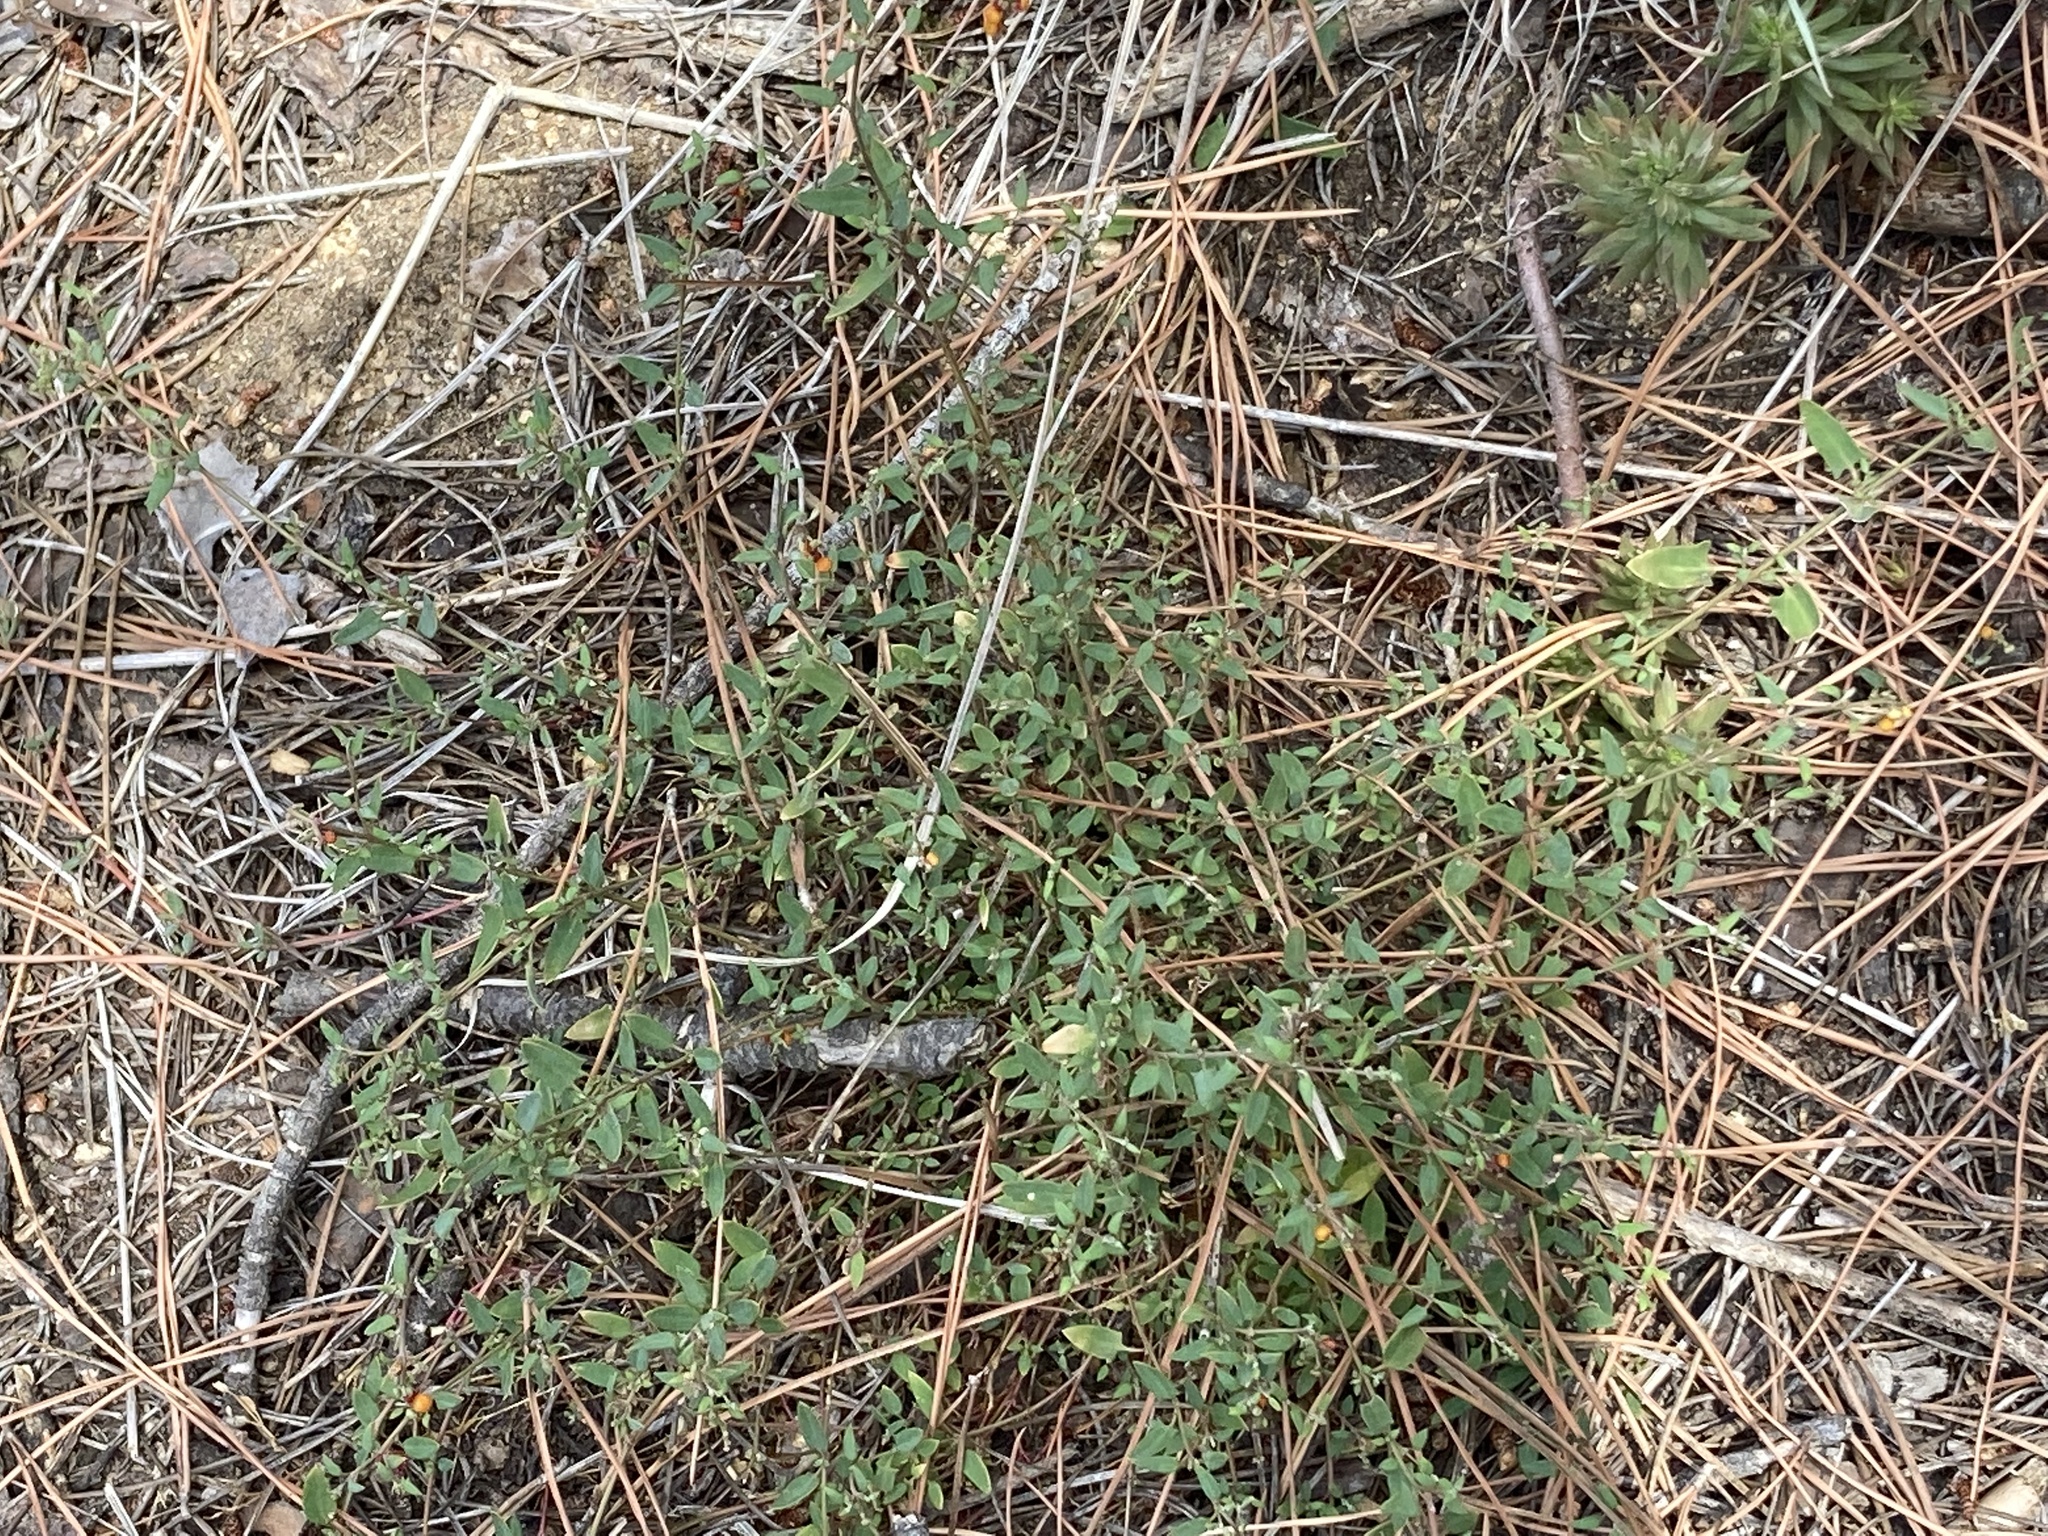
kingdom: Plantae
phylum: Tracheophyta
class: Magnoliopsida
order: Caryophyllales
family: Amaranthaceae
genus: Chenopodium
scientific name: Chenopodium nutans
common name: Climbing-saltbush
